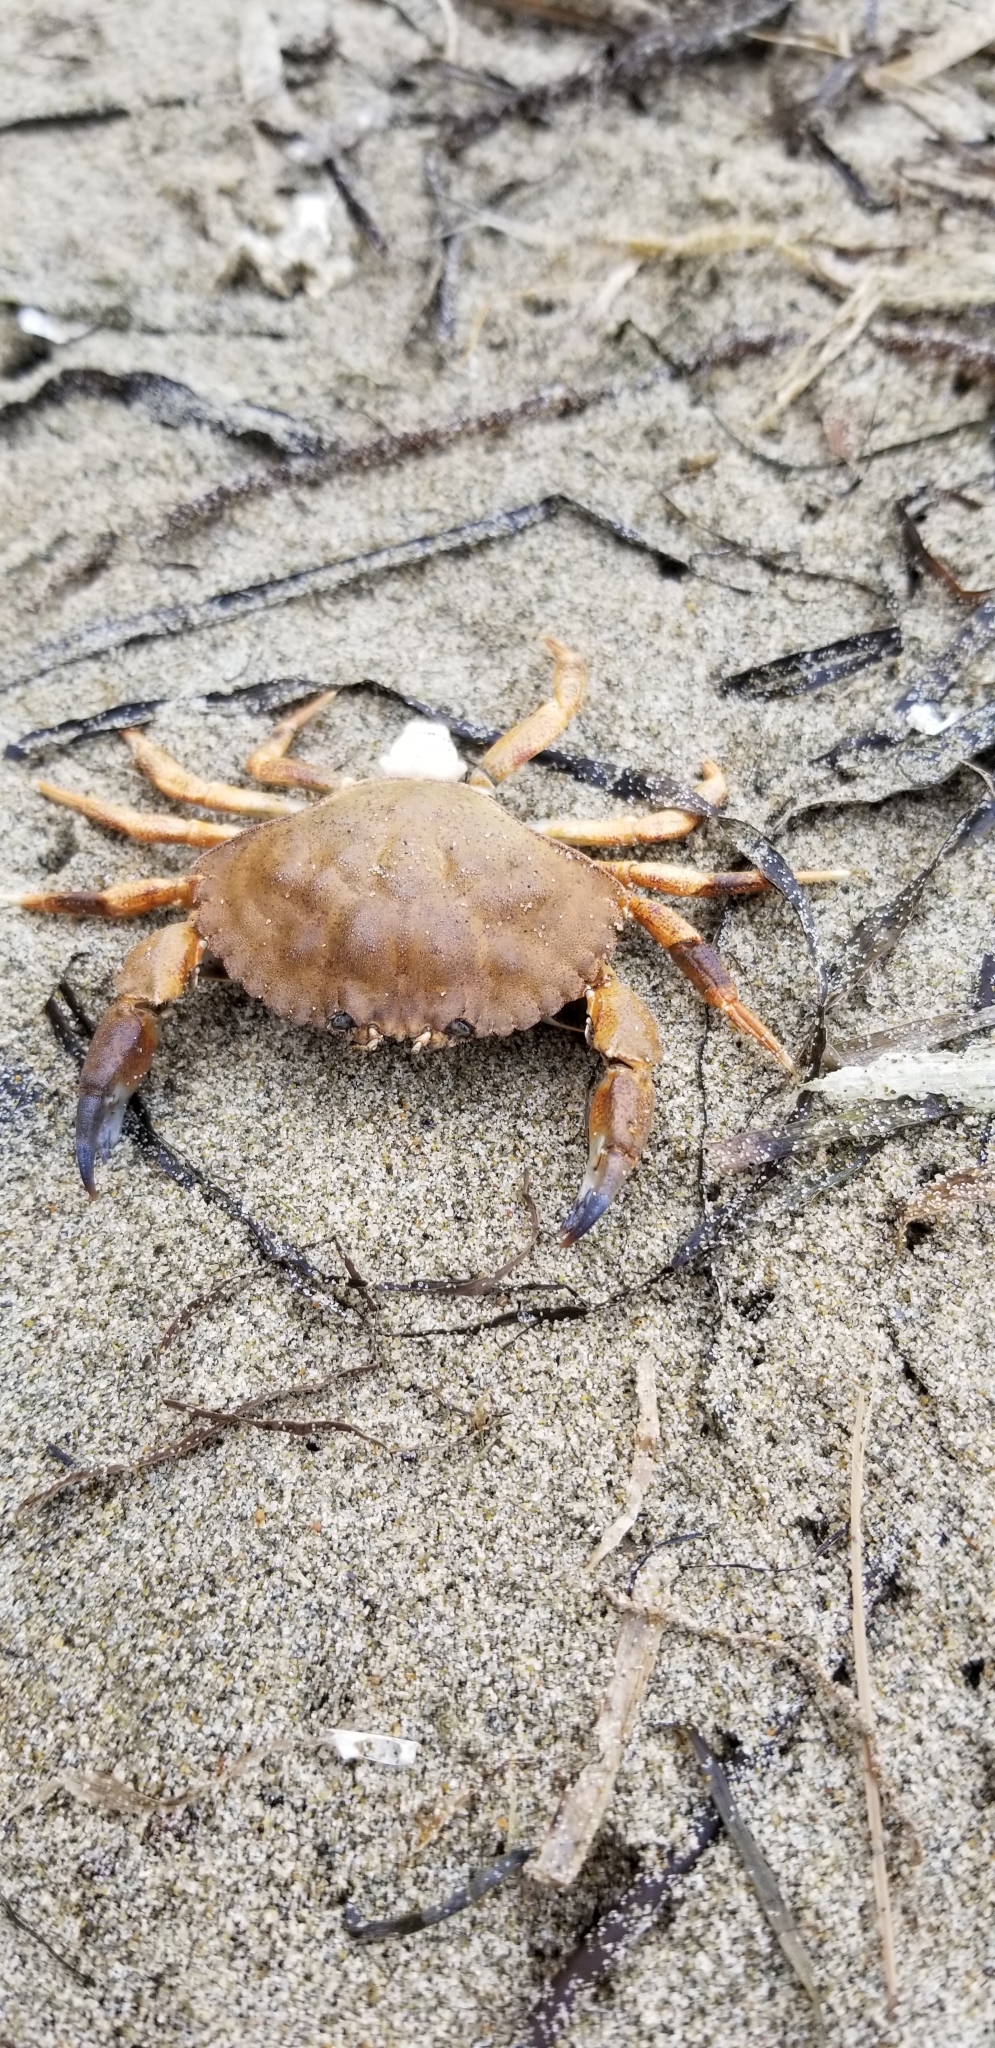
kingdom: Animalia
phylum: Arthropoda
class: Malacostraca
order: Decapoda
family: Cancridae
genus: Metacarcinus
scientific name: Metacarcinus anthonyi
